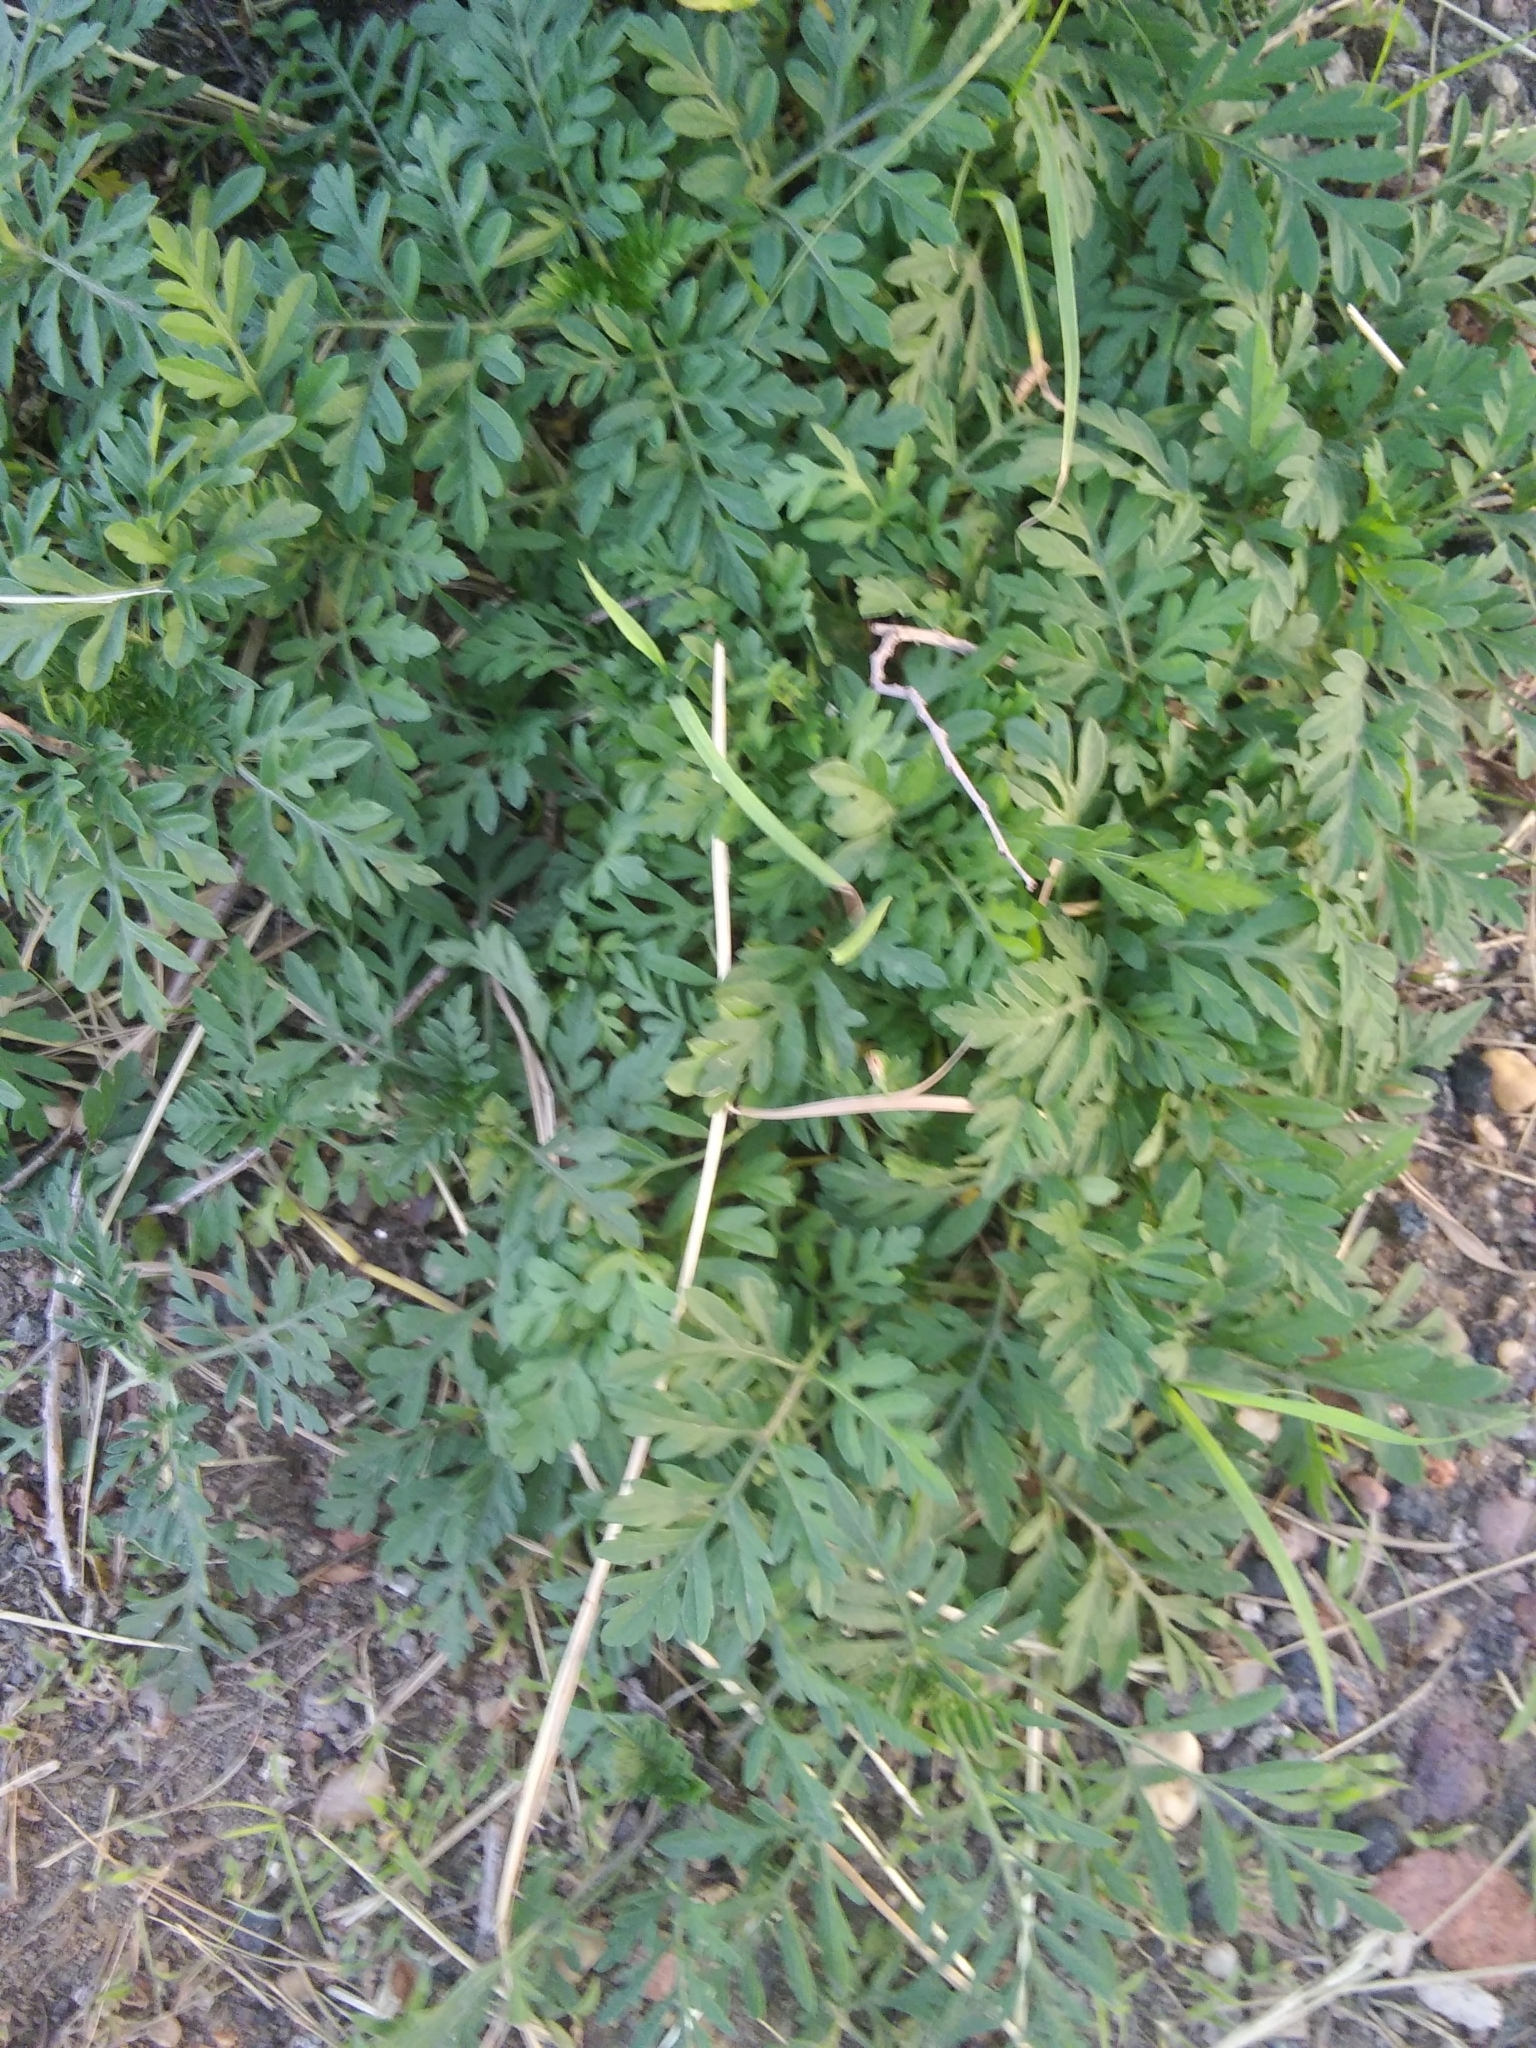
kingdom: Plantae
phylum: Tracheophyta
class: Magnoliopsida
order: Asterales
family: Asteraceae
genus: Ambrosia
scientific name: Ambrosia artemisiifolia
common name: Annual ragweed
